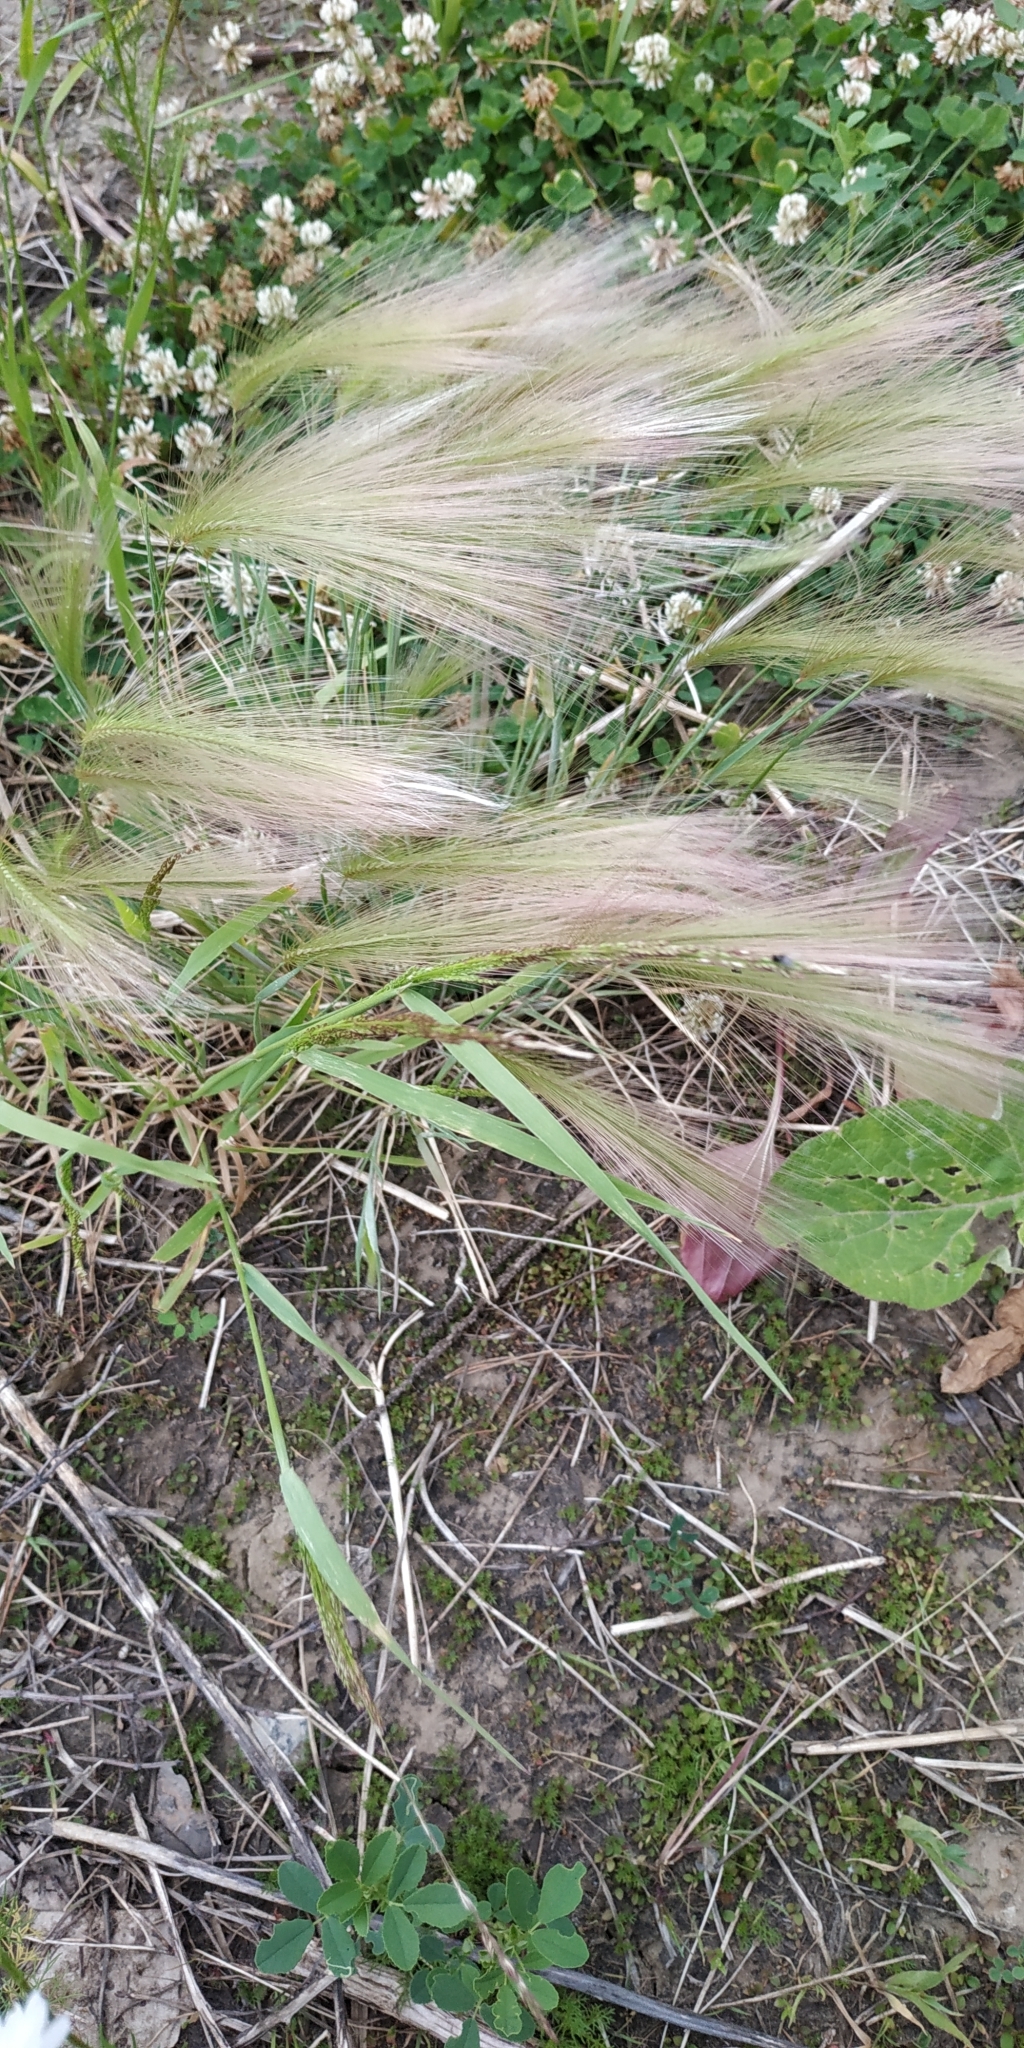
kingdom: Plantae
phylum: Tracheophyta
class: Liliopsida
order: Poales
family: Poaceae
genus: Hordeum
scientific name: Hordeum jubatum
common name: Foxtail barley
